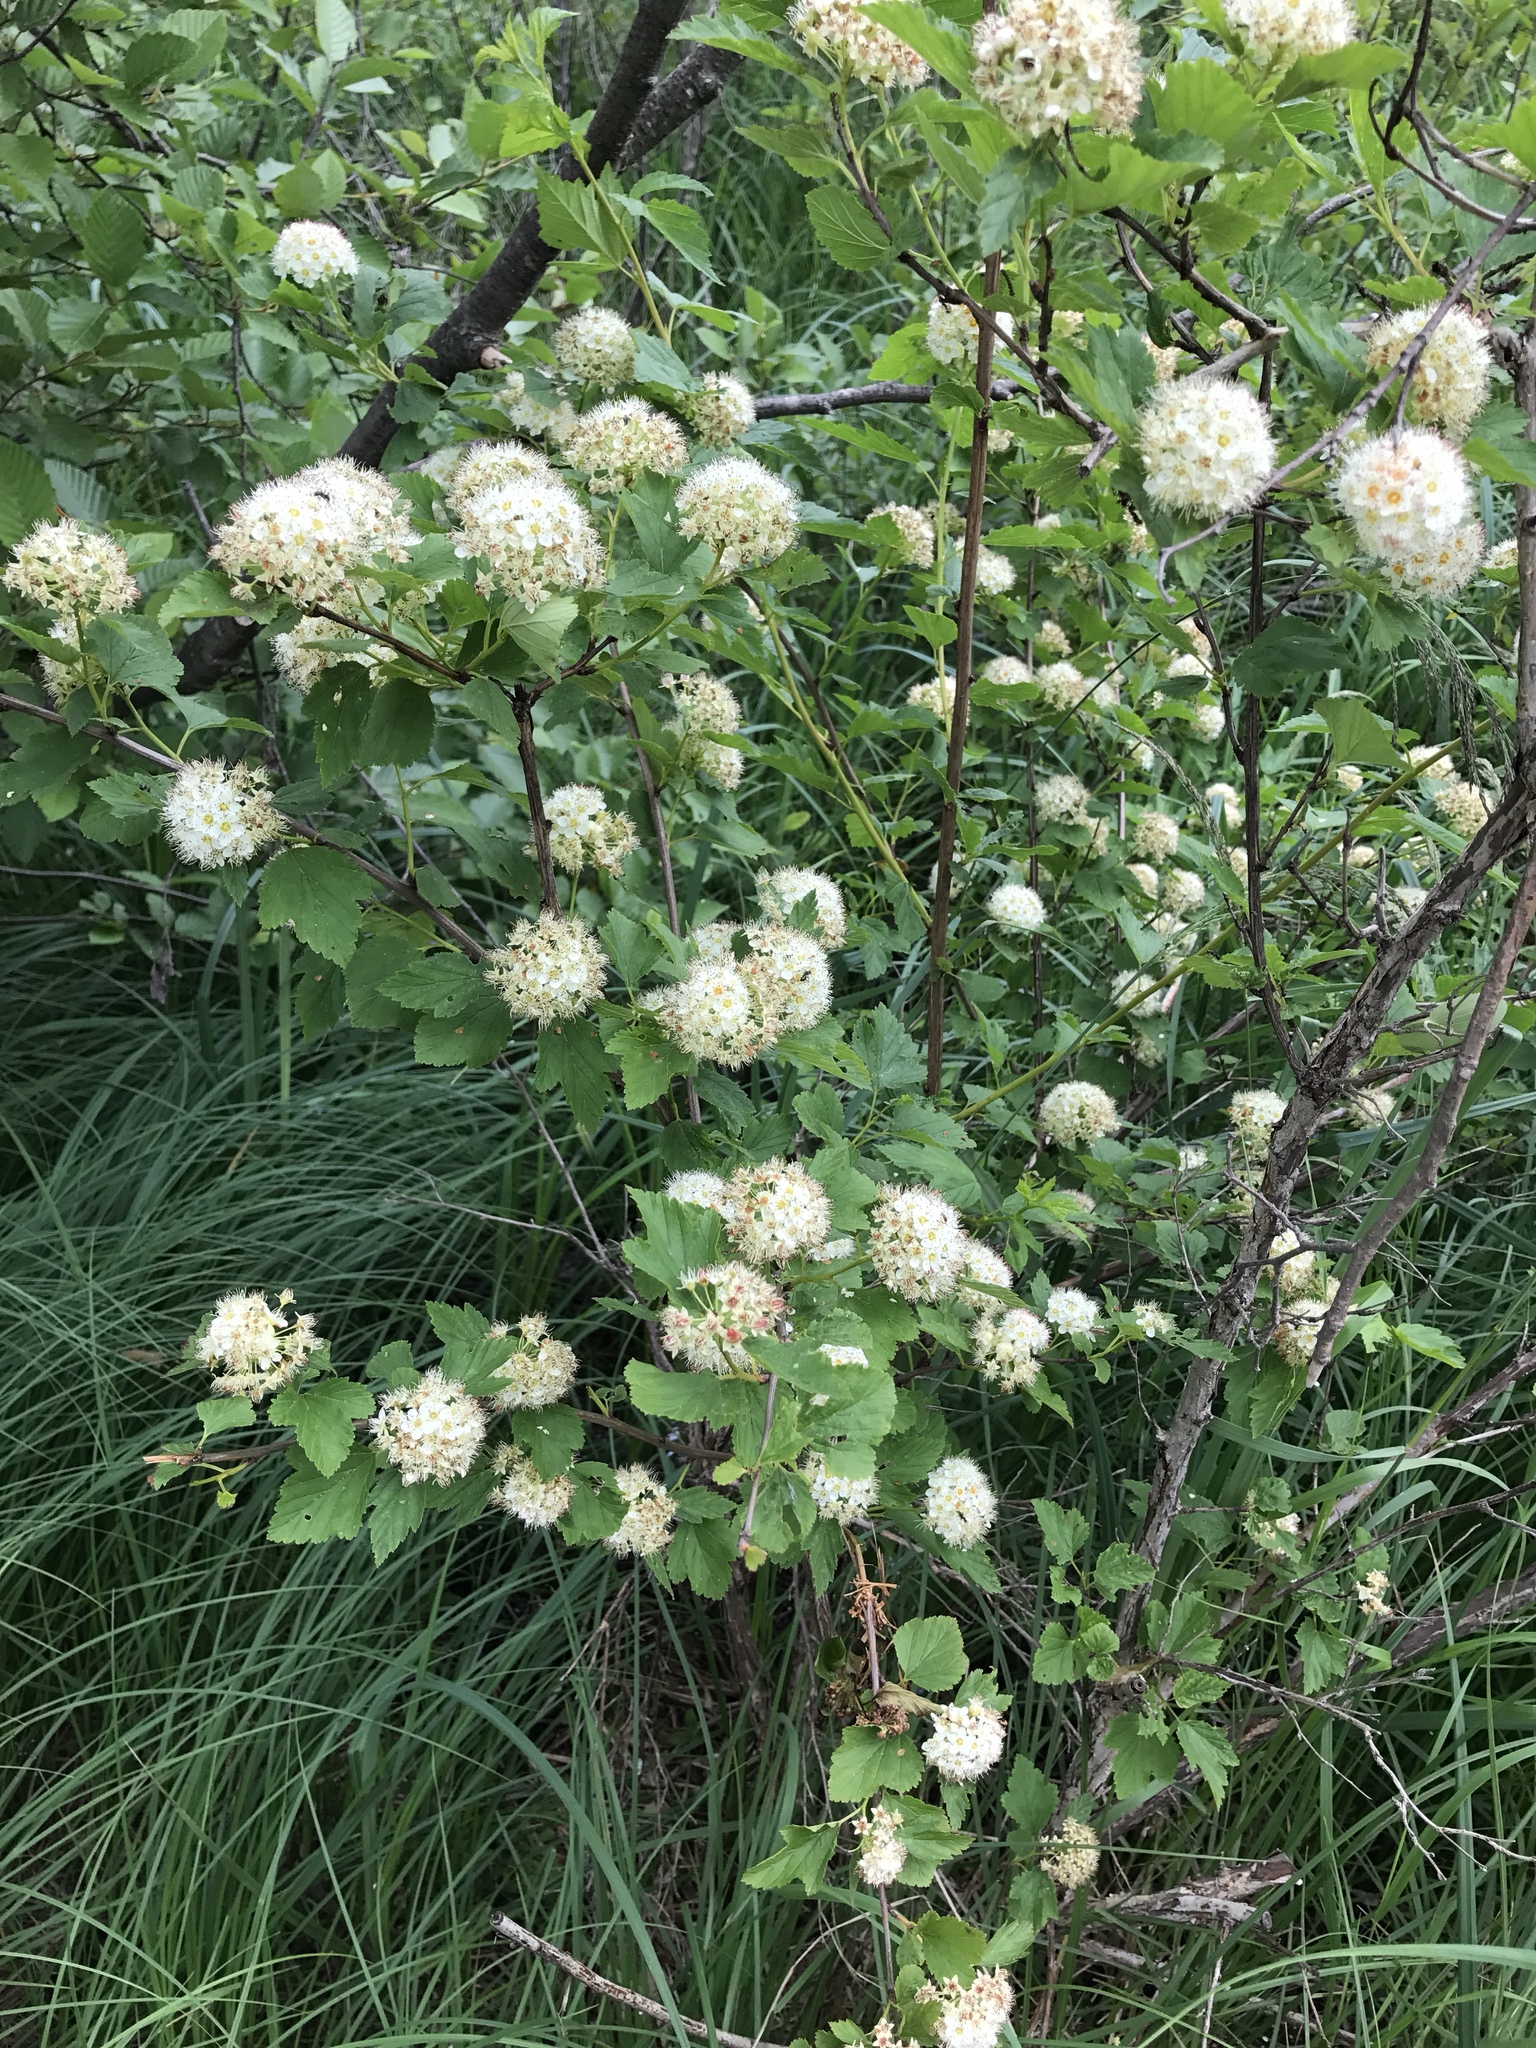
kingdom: Plantae
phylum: Tracheophyta
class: Magnoliopsida
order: Rosales
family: Rosaceae
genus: Physocarpus
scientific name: Physocarpus opulifolius
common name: Ninebark
